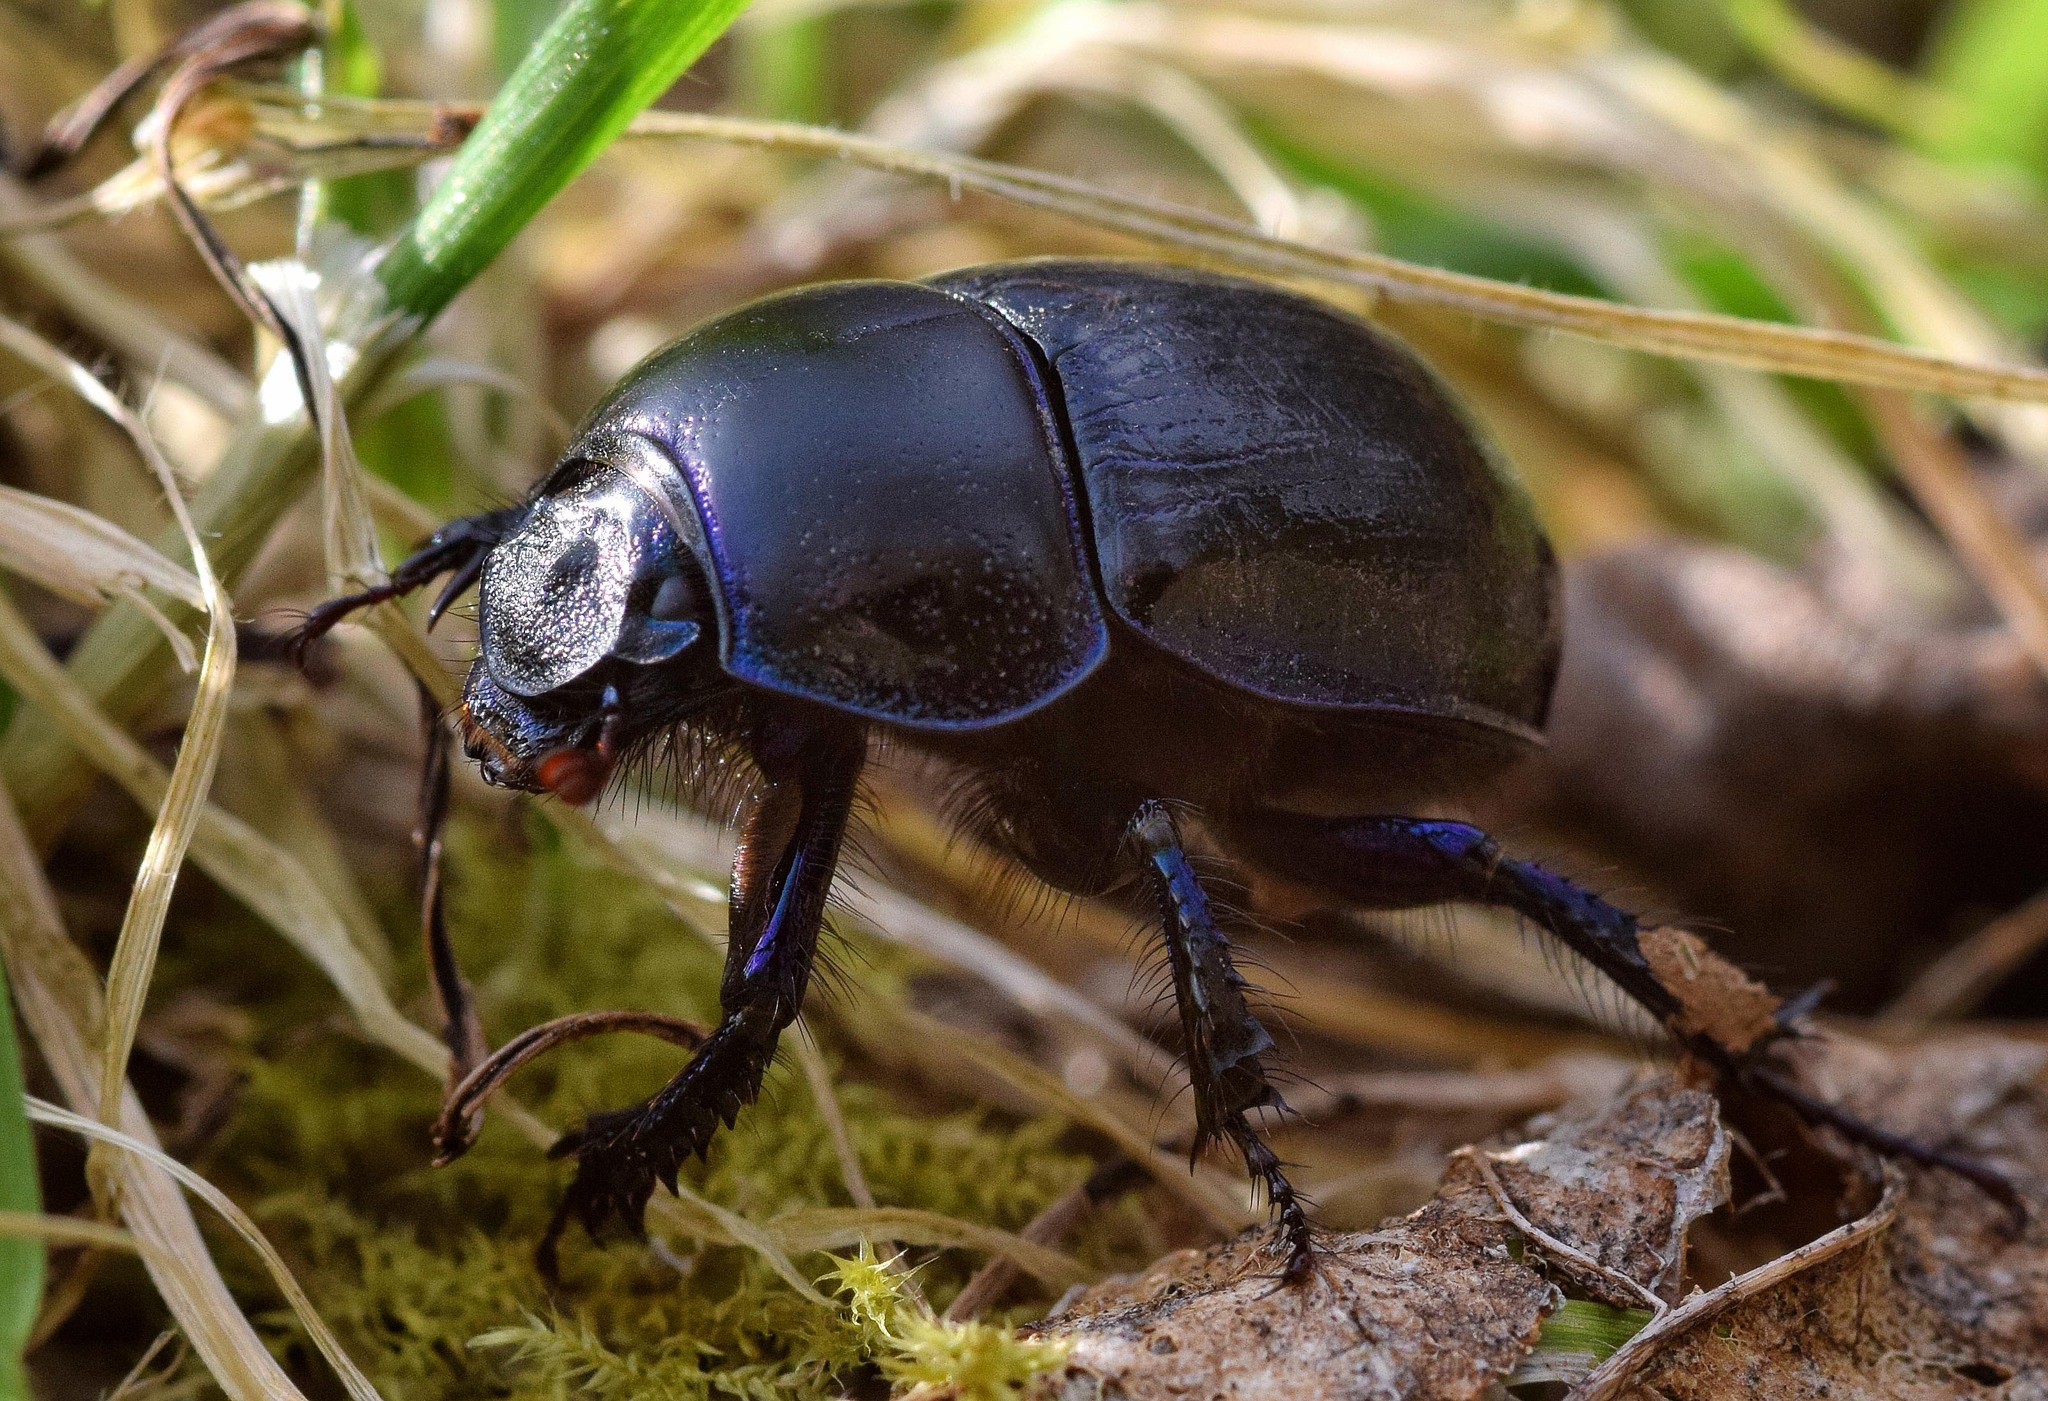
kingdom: Animalia
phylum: Arthropoda
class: Insecta
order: Coleoptera
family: Geotrupidae
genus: Anoplotrupes
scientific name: Anoplotrupes stercorosus
